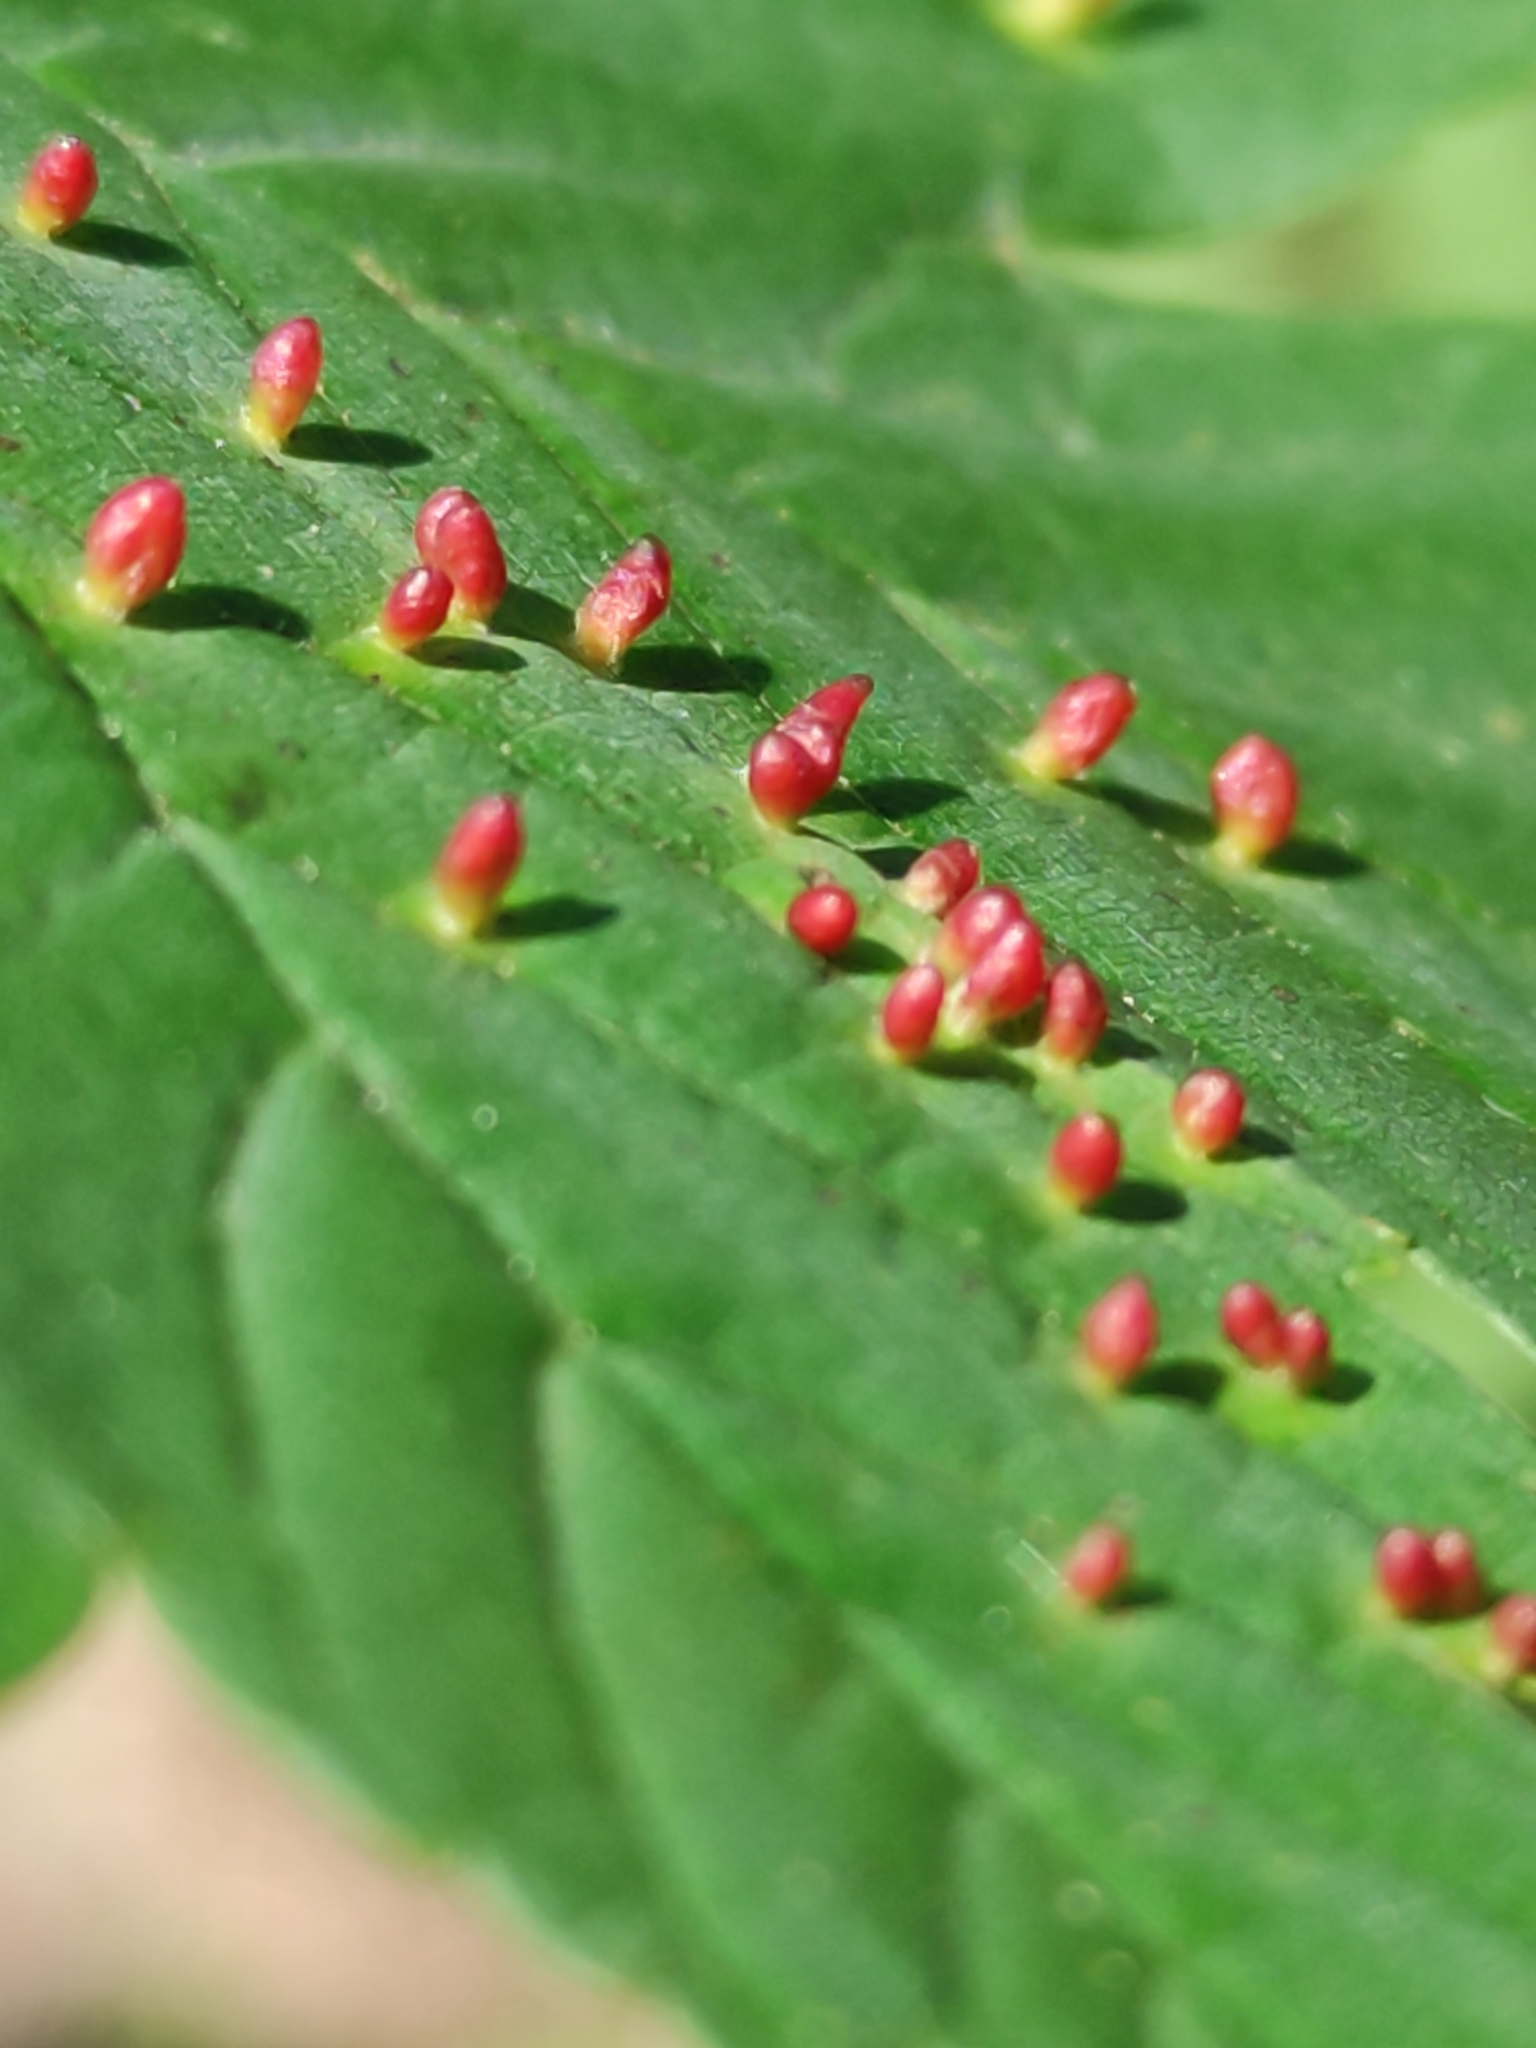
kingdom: Animalia
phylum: Arthropoda
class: Arachnida
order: Trombidiformes
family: Eriophyidae
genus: Aceria
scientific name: Aceria cephaloneus
